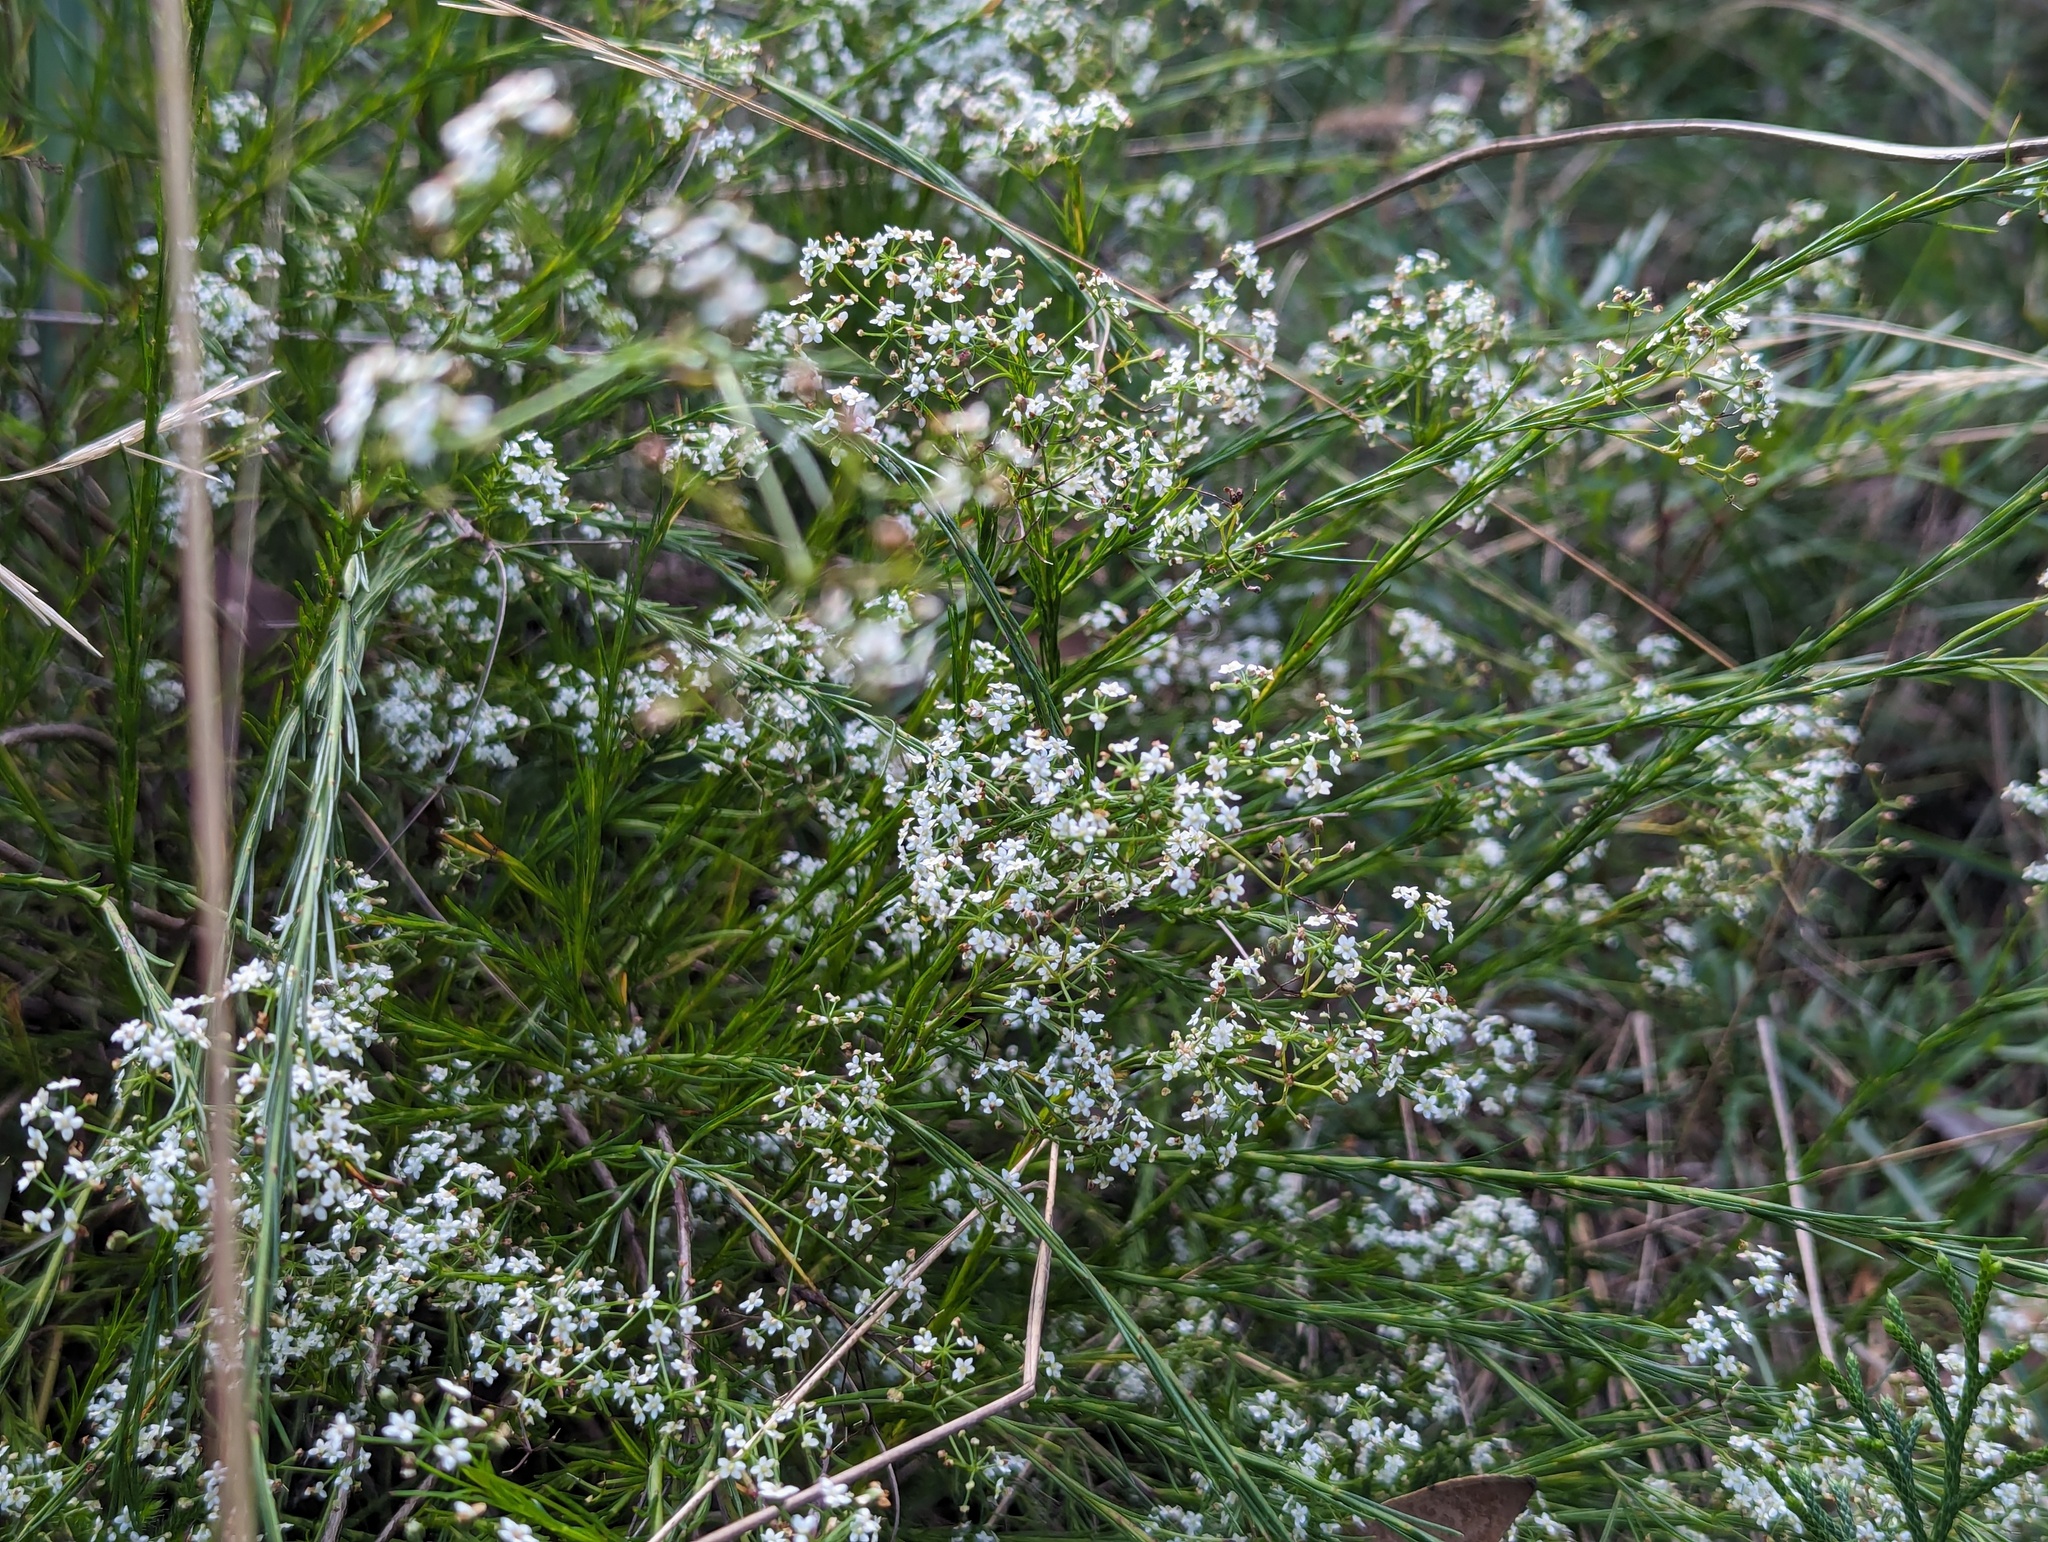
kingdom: Plantae
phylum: Tracheophyta
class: Magnoliopsida
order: Apiales
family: Apiaceae
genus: Platysace
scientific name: Platysace linearifolia
